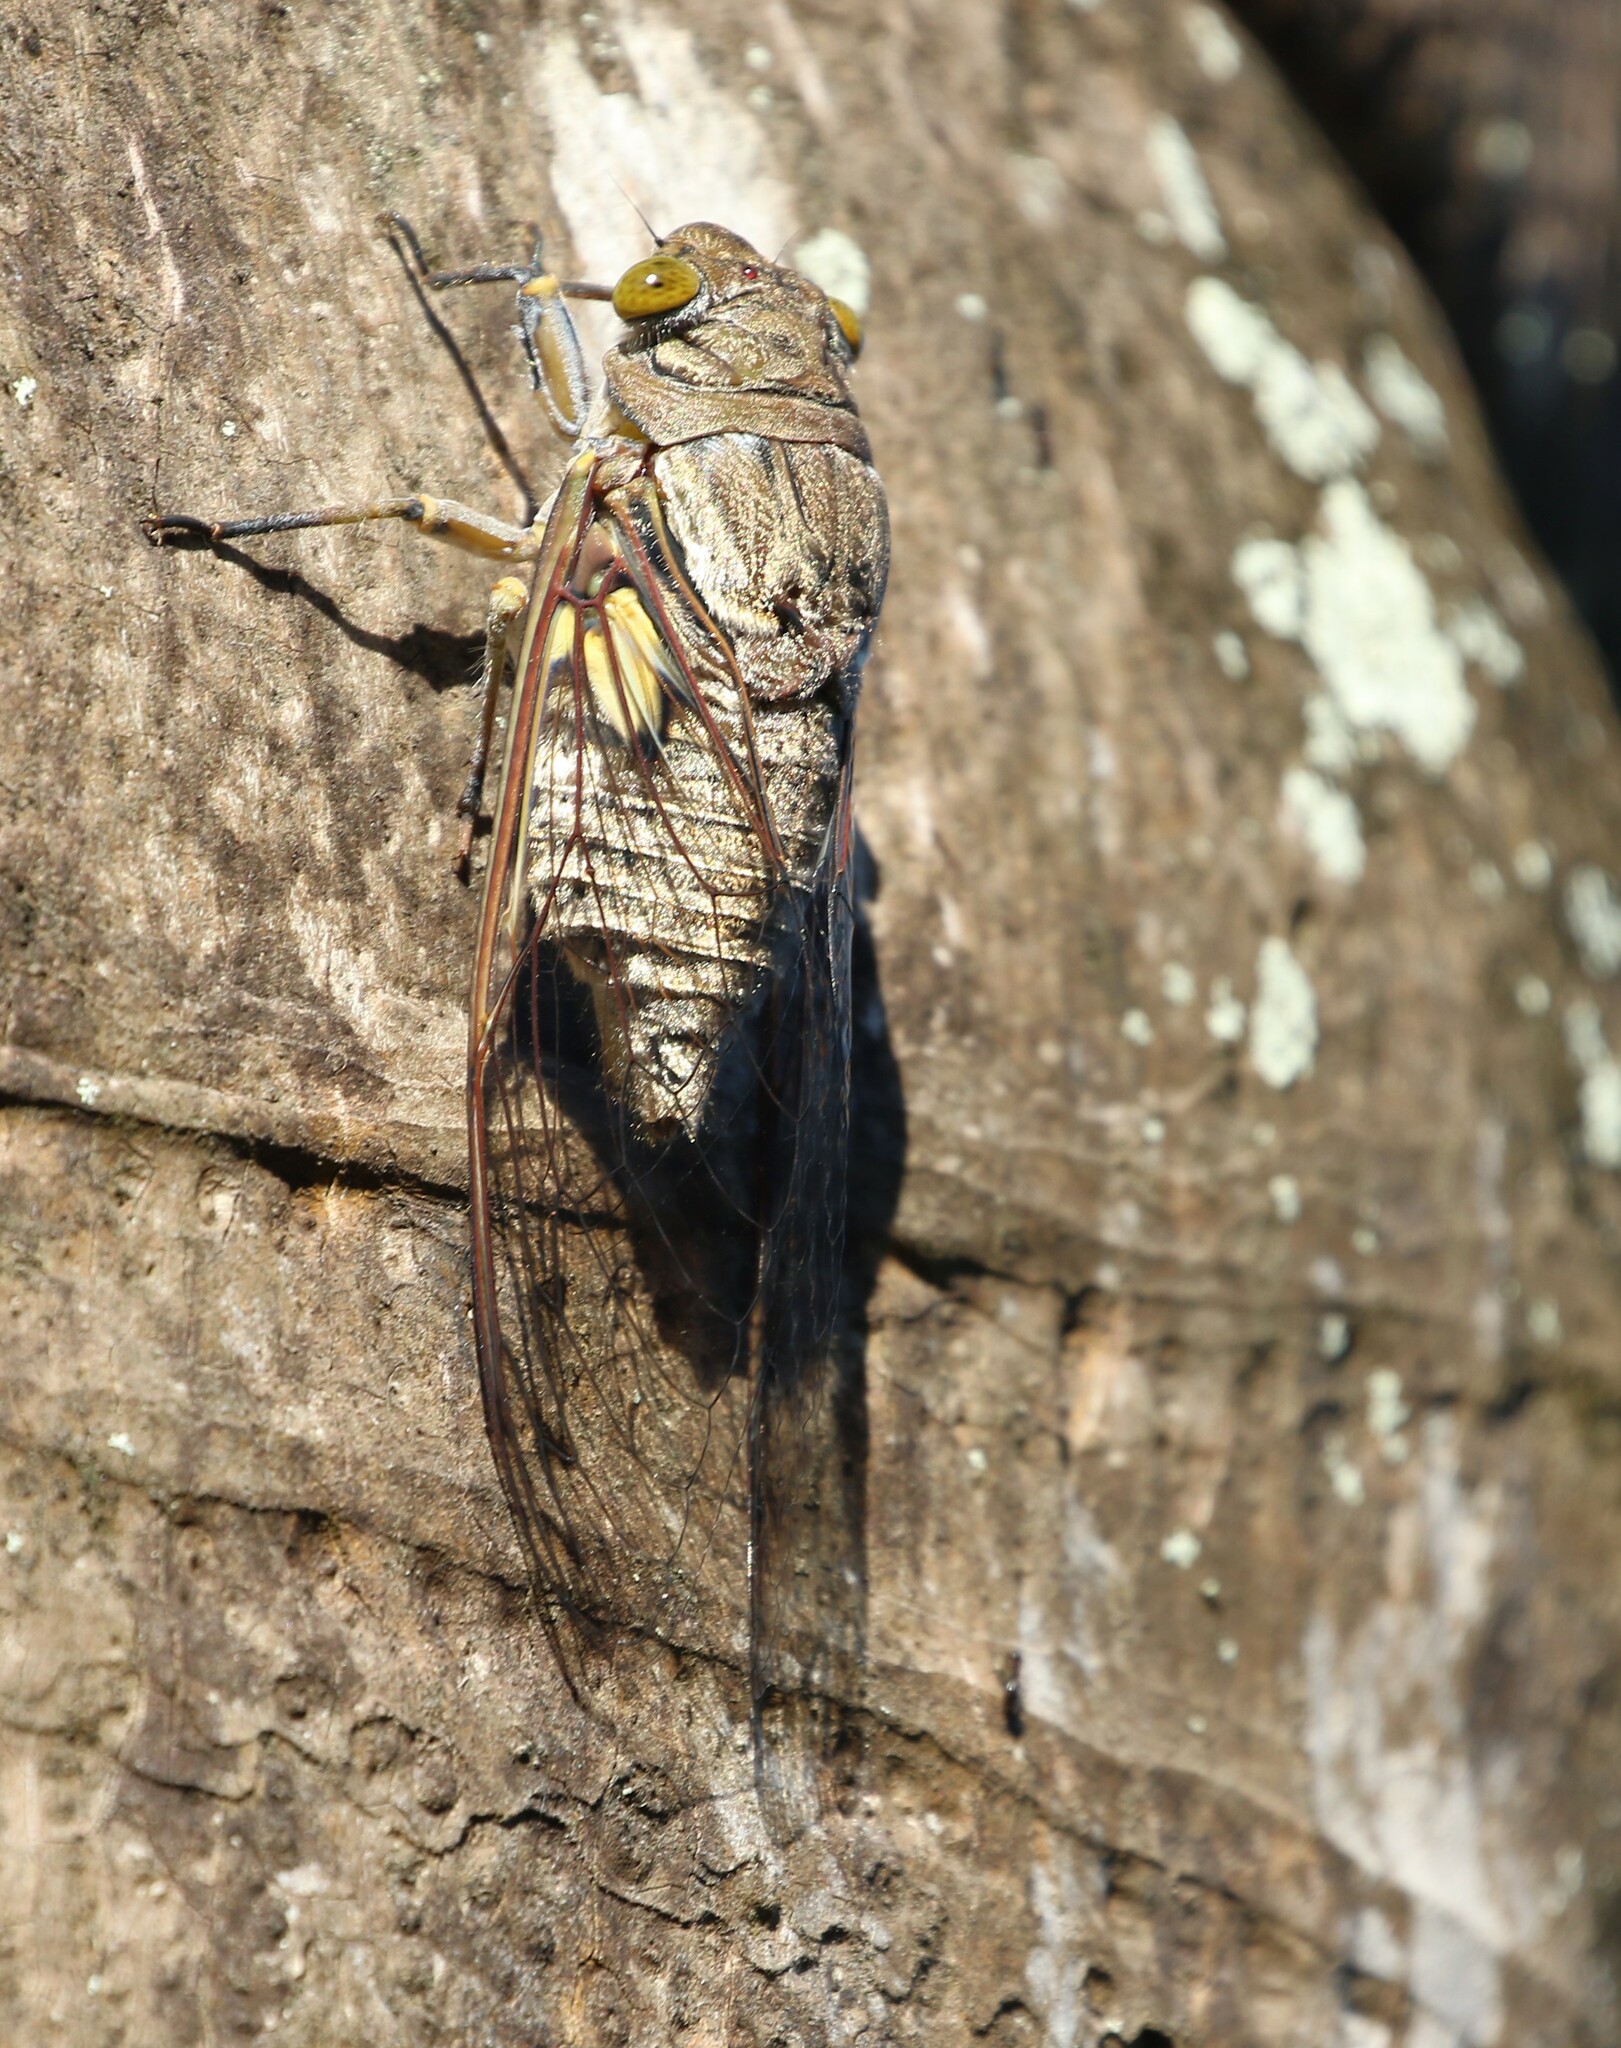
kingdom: Animalia
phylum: Arthropoda
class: Insecta
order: Hemiptera
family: Cicadidae
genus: Quesada
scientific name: Quesada gigas
